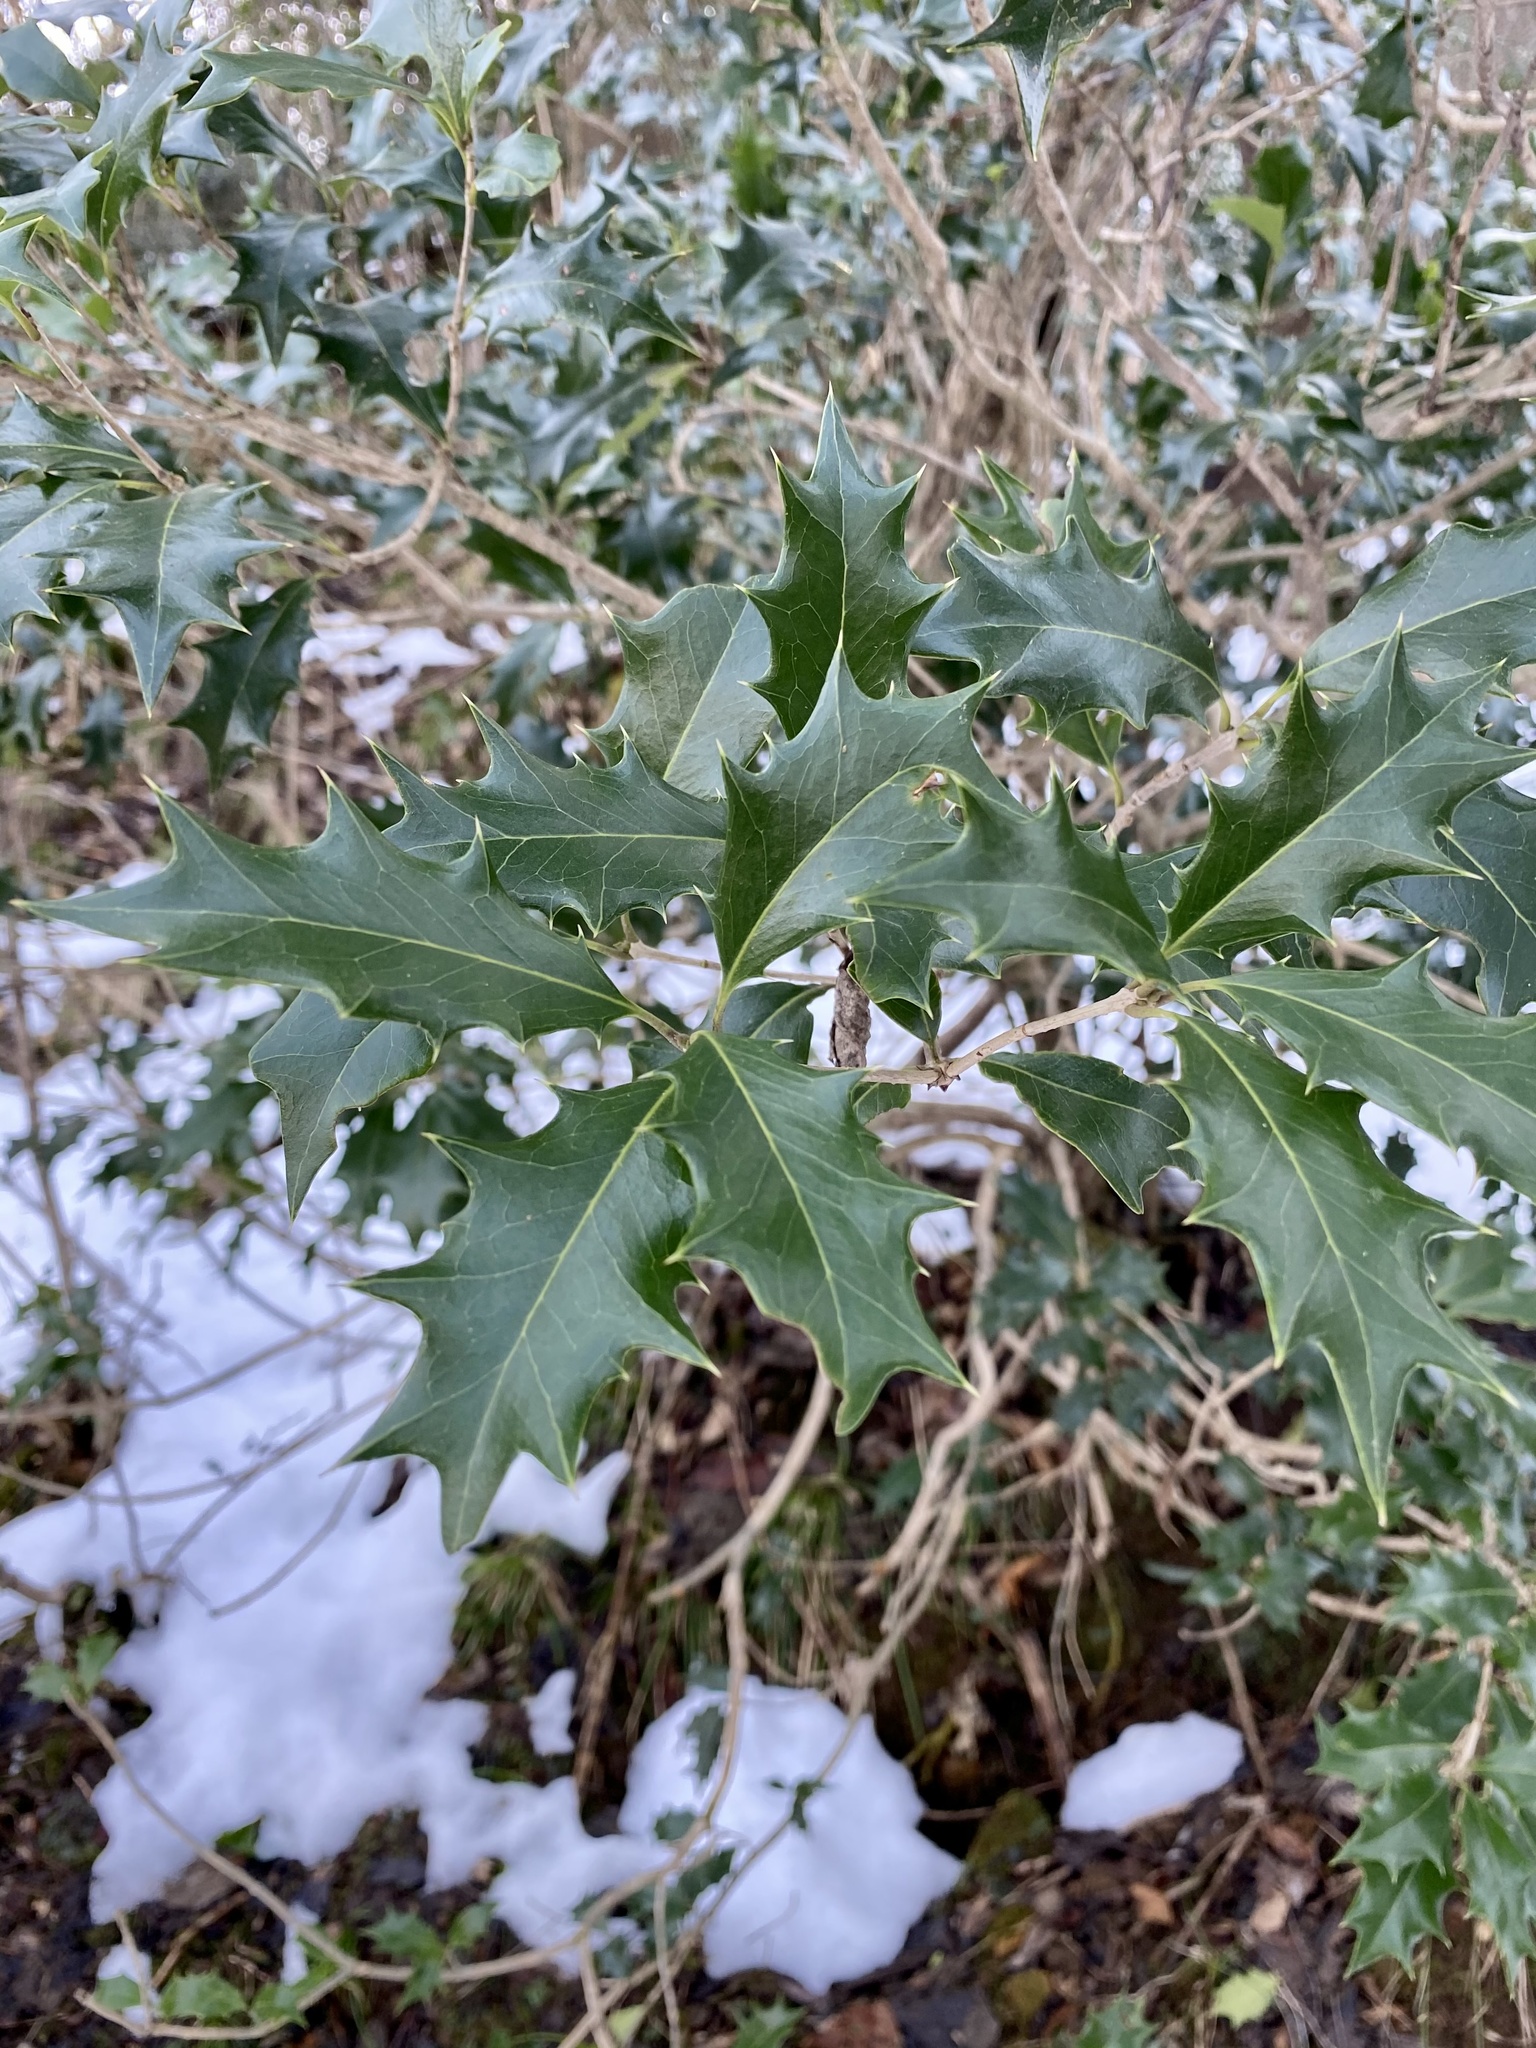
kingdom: Plantae
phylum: Tracheophyta
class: Magnoliopsida
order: Lamiales
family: Oleaceae
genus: Osmanthus
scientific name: Osmanthus heterophyllus
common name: Holly osmanthus
